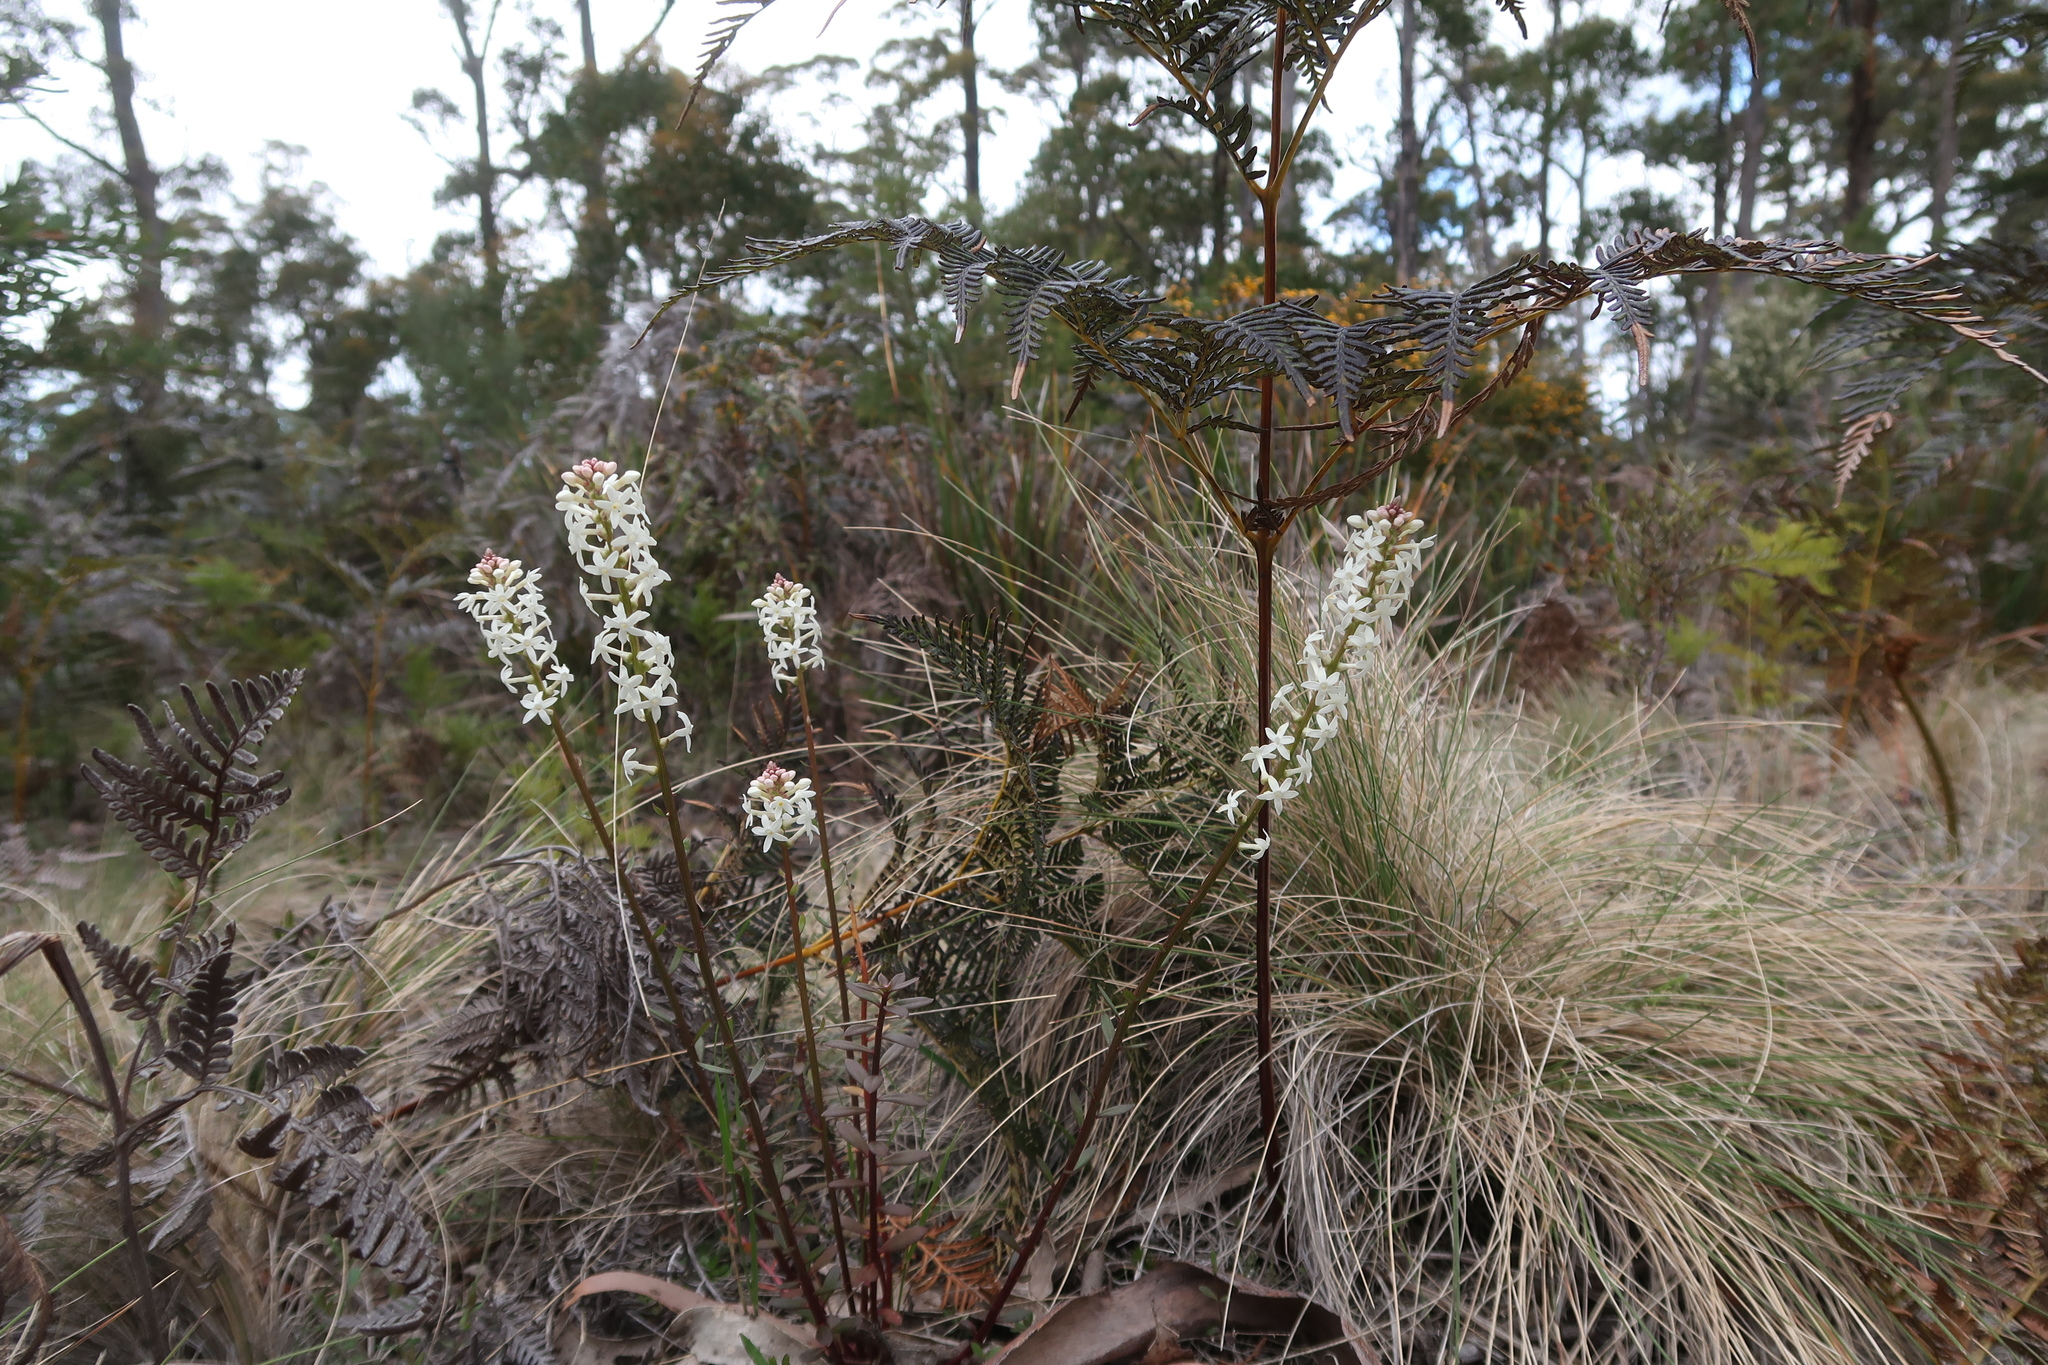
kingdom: Plantae
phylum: Tracheophyta
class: Magnoliopsida
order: Celastrales
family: Celastraceae
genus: Stackhousia
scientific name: Stackhousia monogyna
